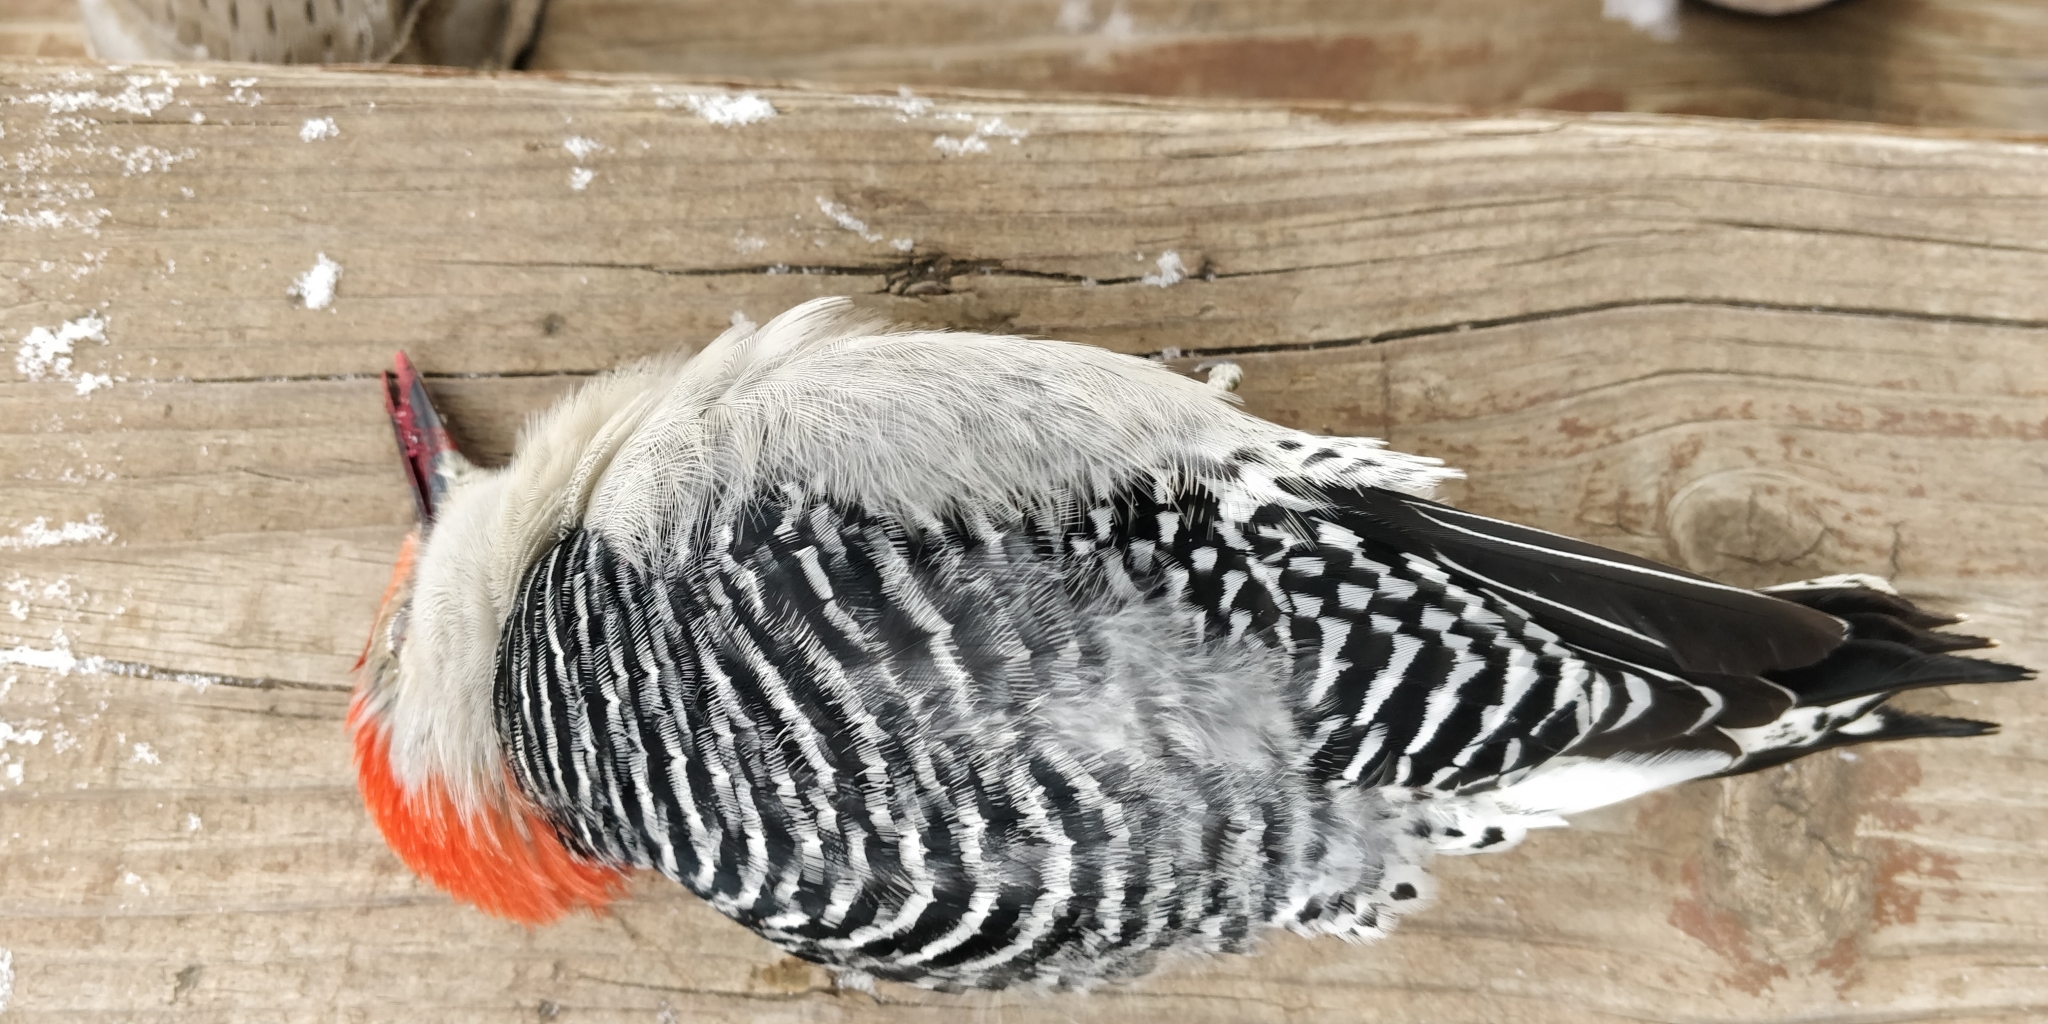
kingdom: Animalia
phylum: Chordata
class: Aves
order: Piciformes
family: Picidae
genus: Melanerpes
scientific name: Melanerpes carolinus
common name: Red-bellied woodpecker
